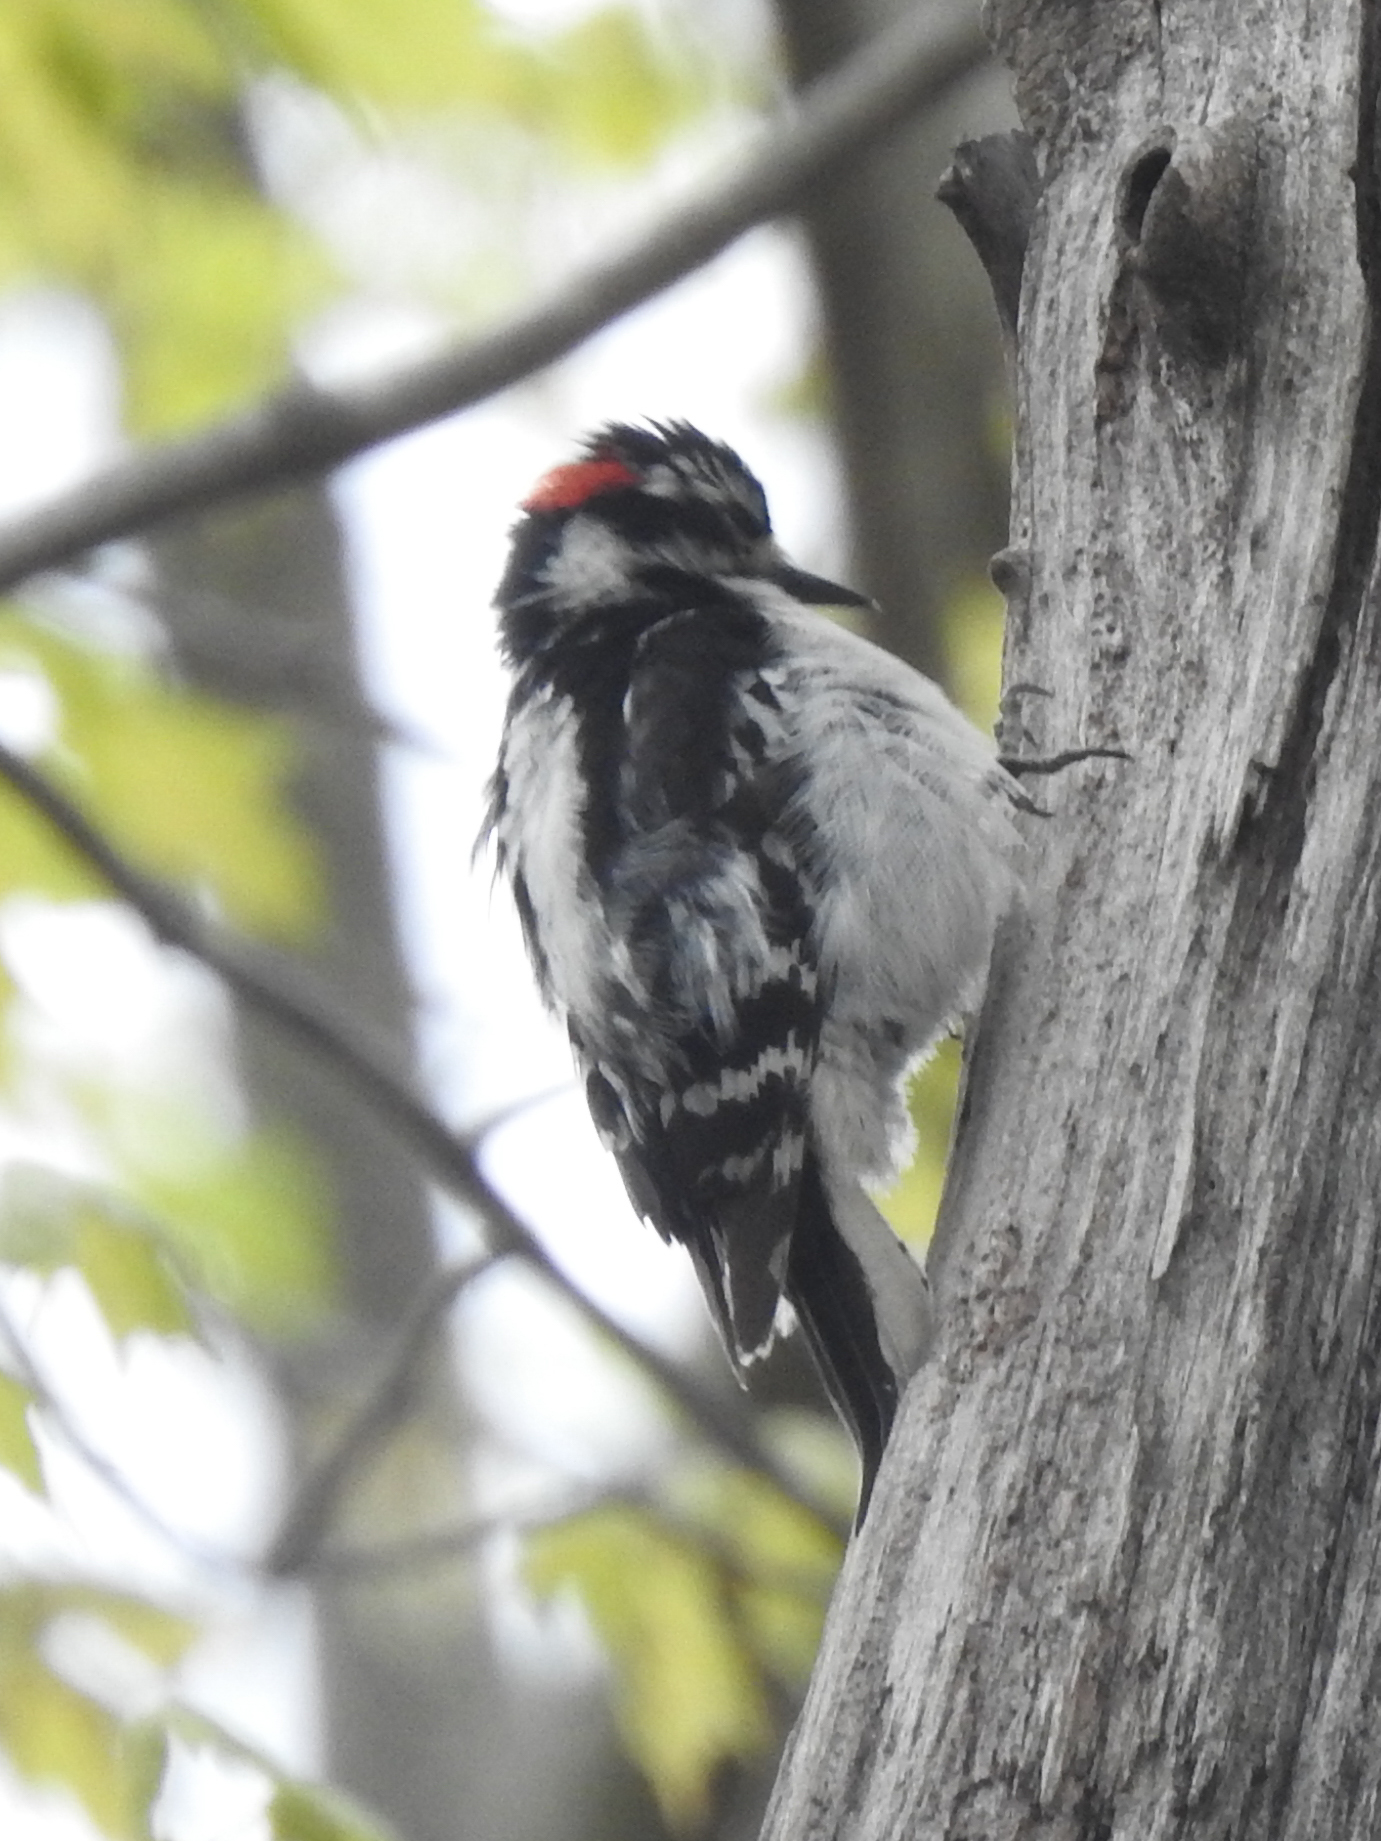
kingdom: Animalia
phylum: Chordata
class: Aves
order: Piciformes
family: Picidae
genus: Dryobates
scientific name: Dryobates pubescens
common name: Downy woodpecker
